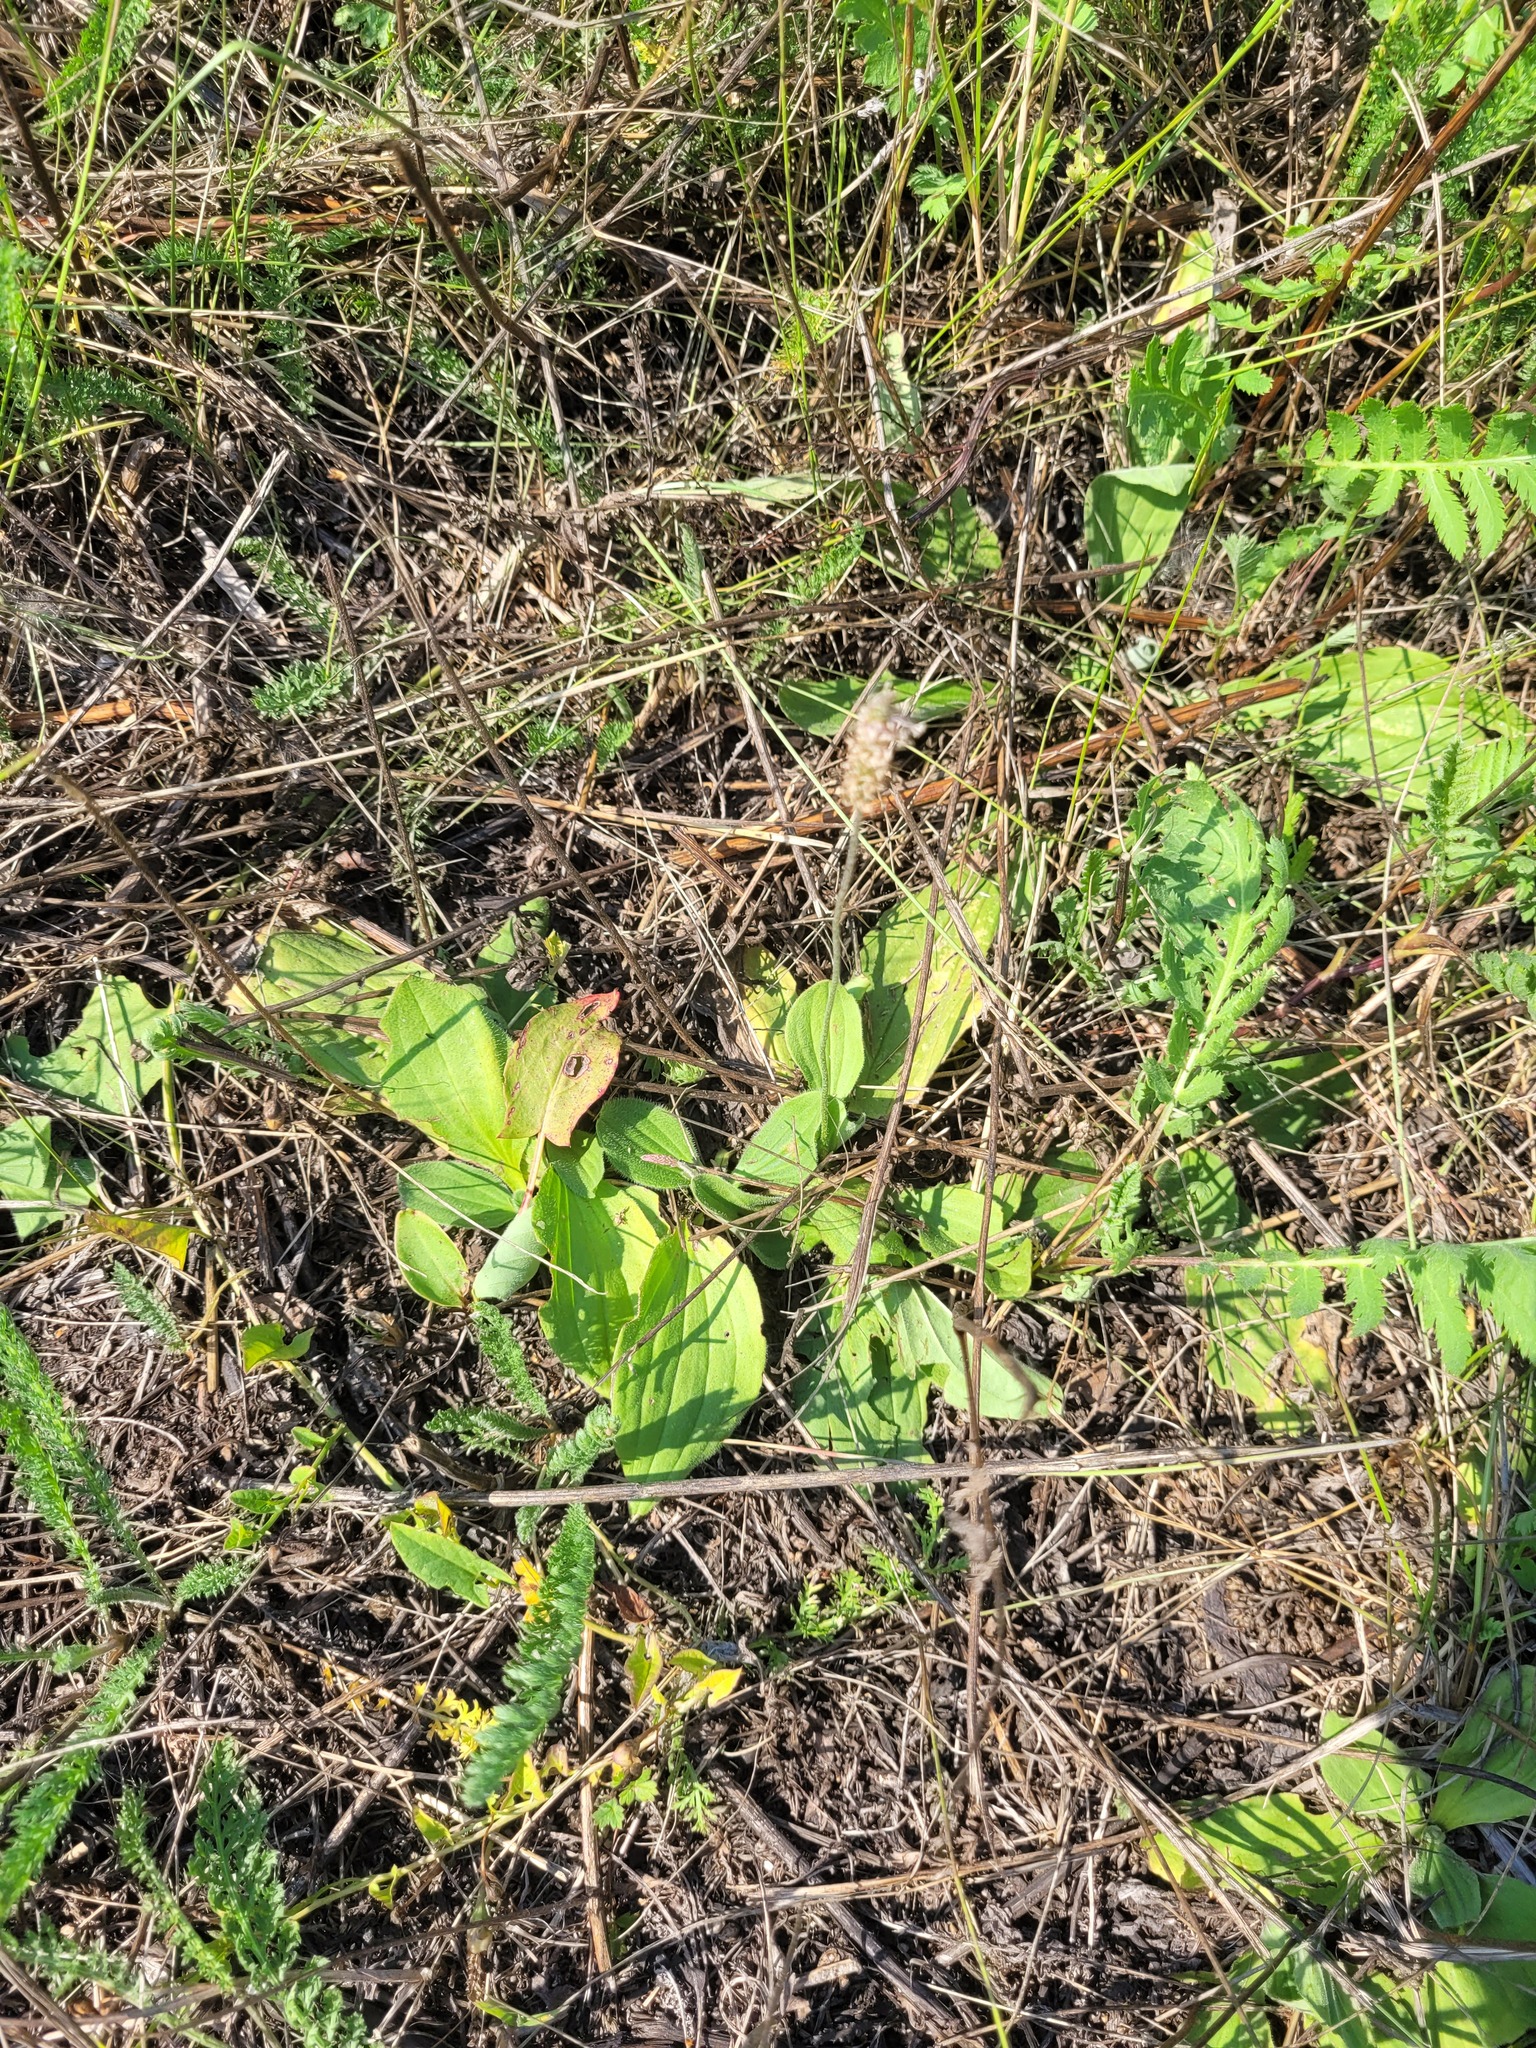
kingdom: Plantae
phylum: Tracheophyta
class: Magnoliopsida
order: Lamiales
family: Plantaginaceae
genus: Plantago
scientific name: Plantago media
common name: Hoary plantain
